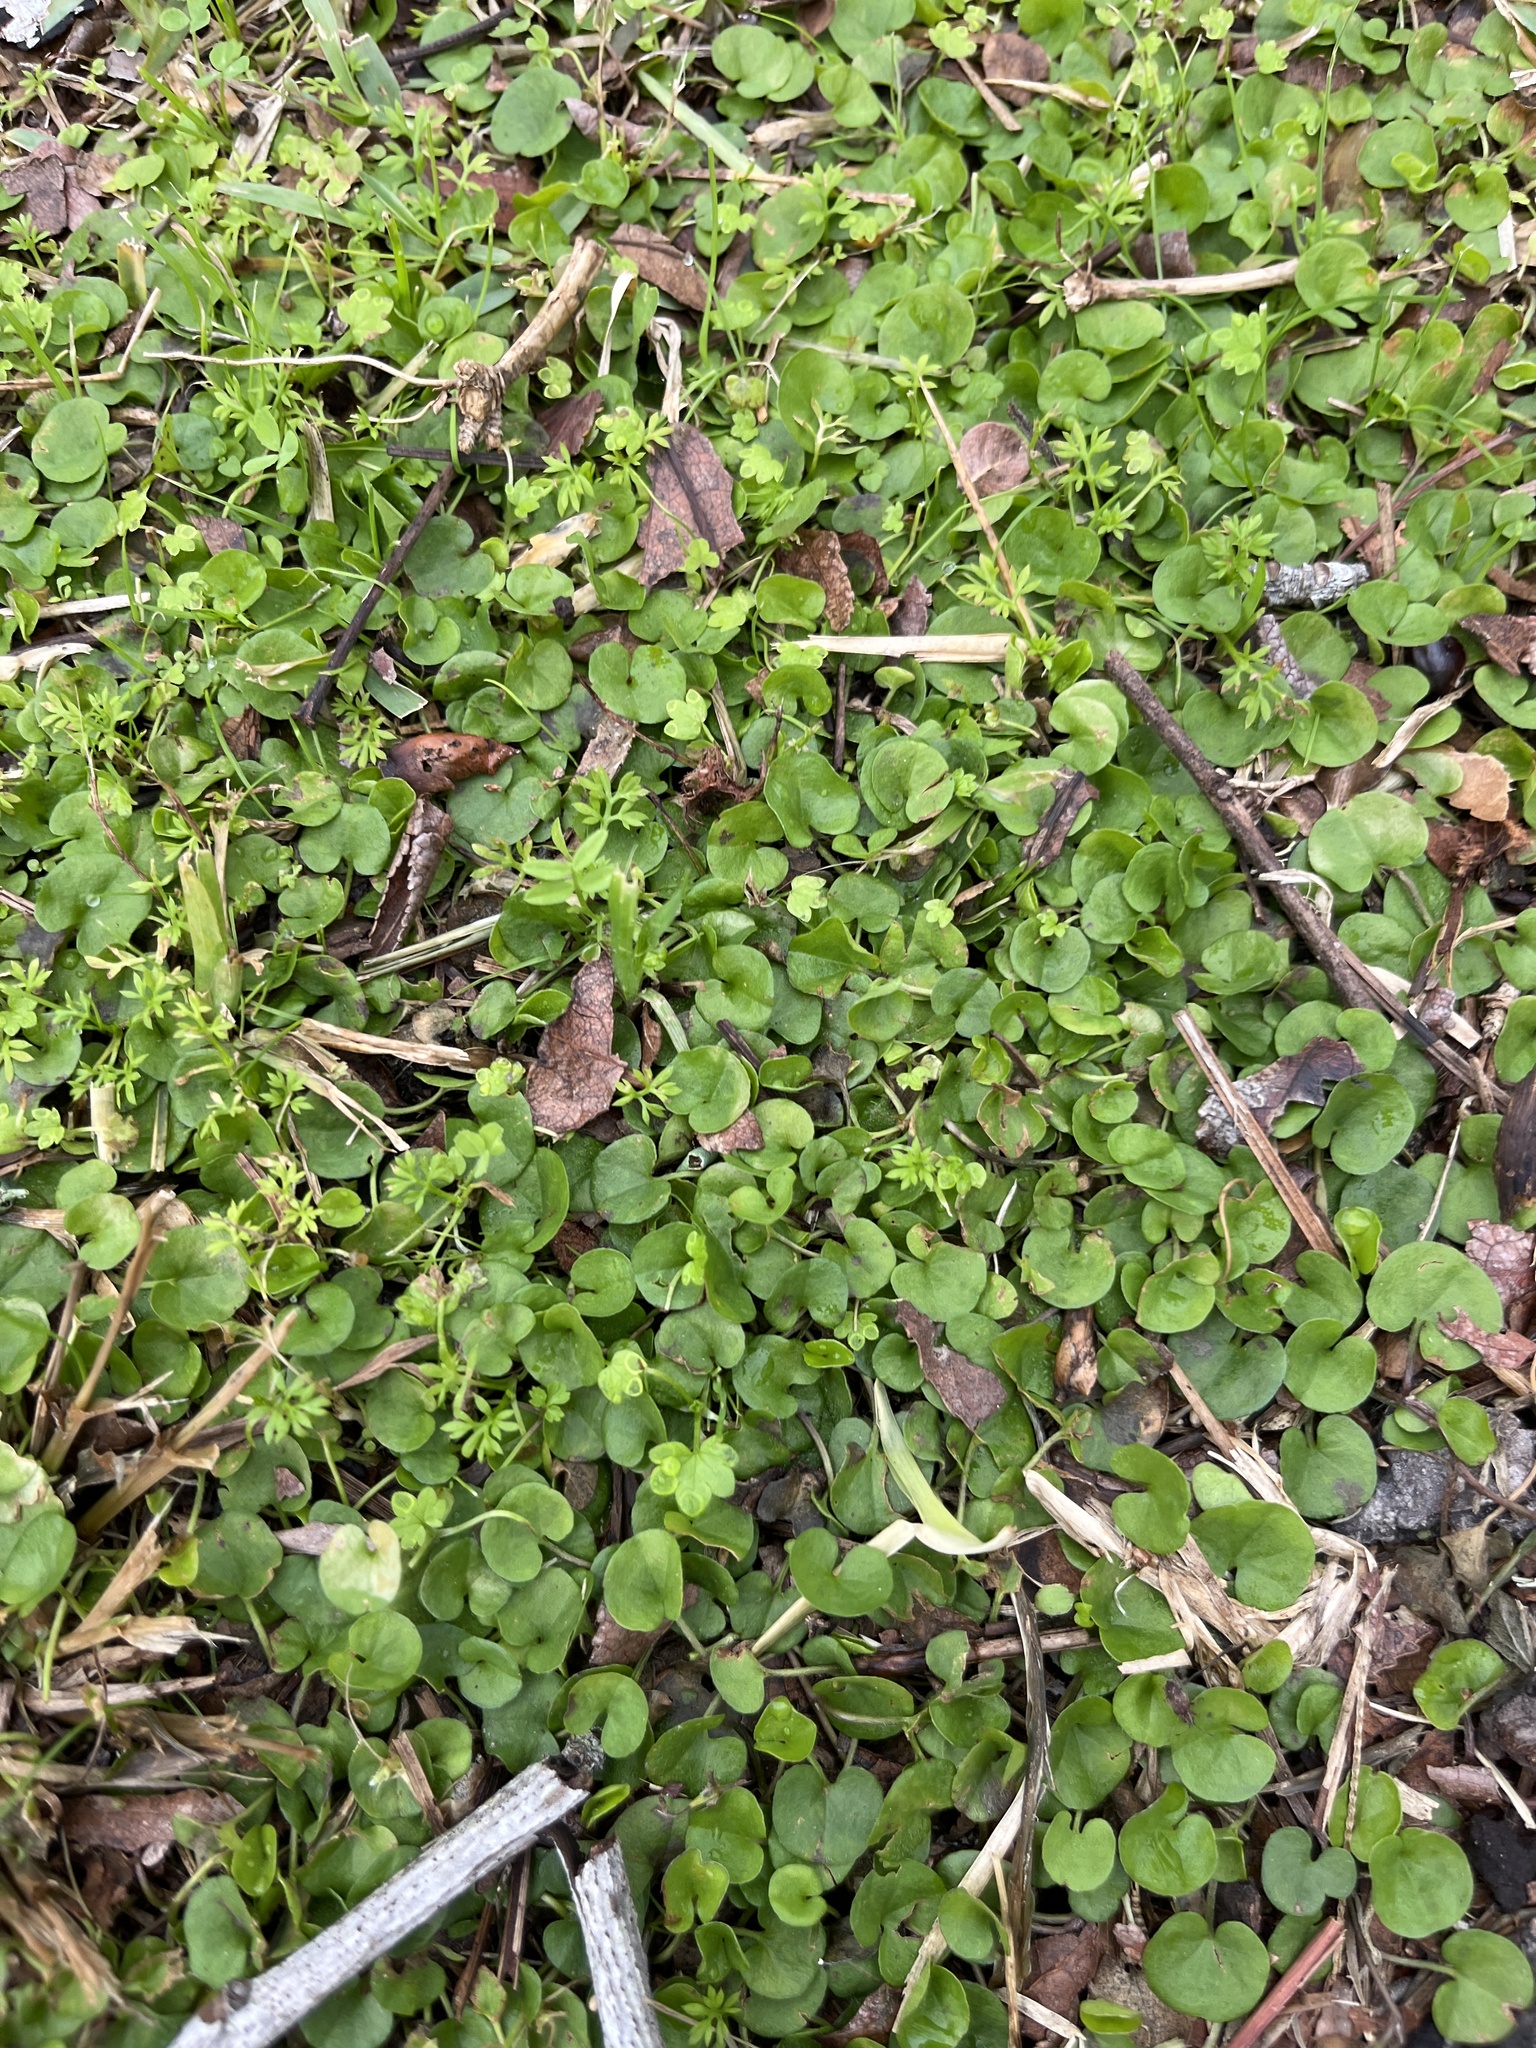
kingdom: Plantae
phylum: Tracheophyta
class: Magnoliopsida
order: Solanales
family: Convolvulaceae
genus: Dichondra
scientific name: Dichondra carolinensis
